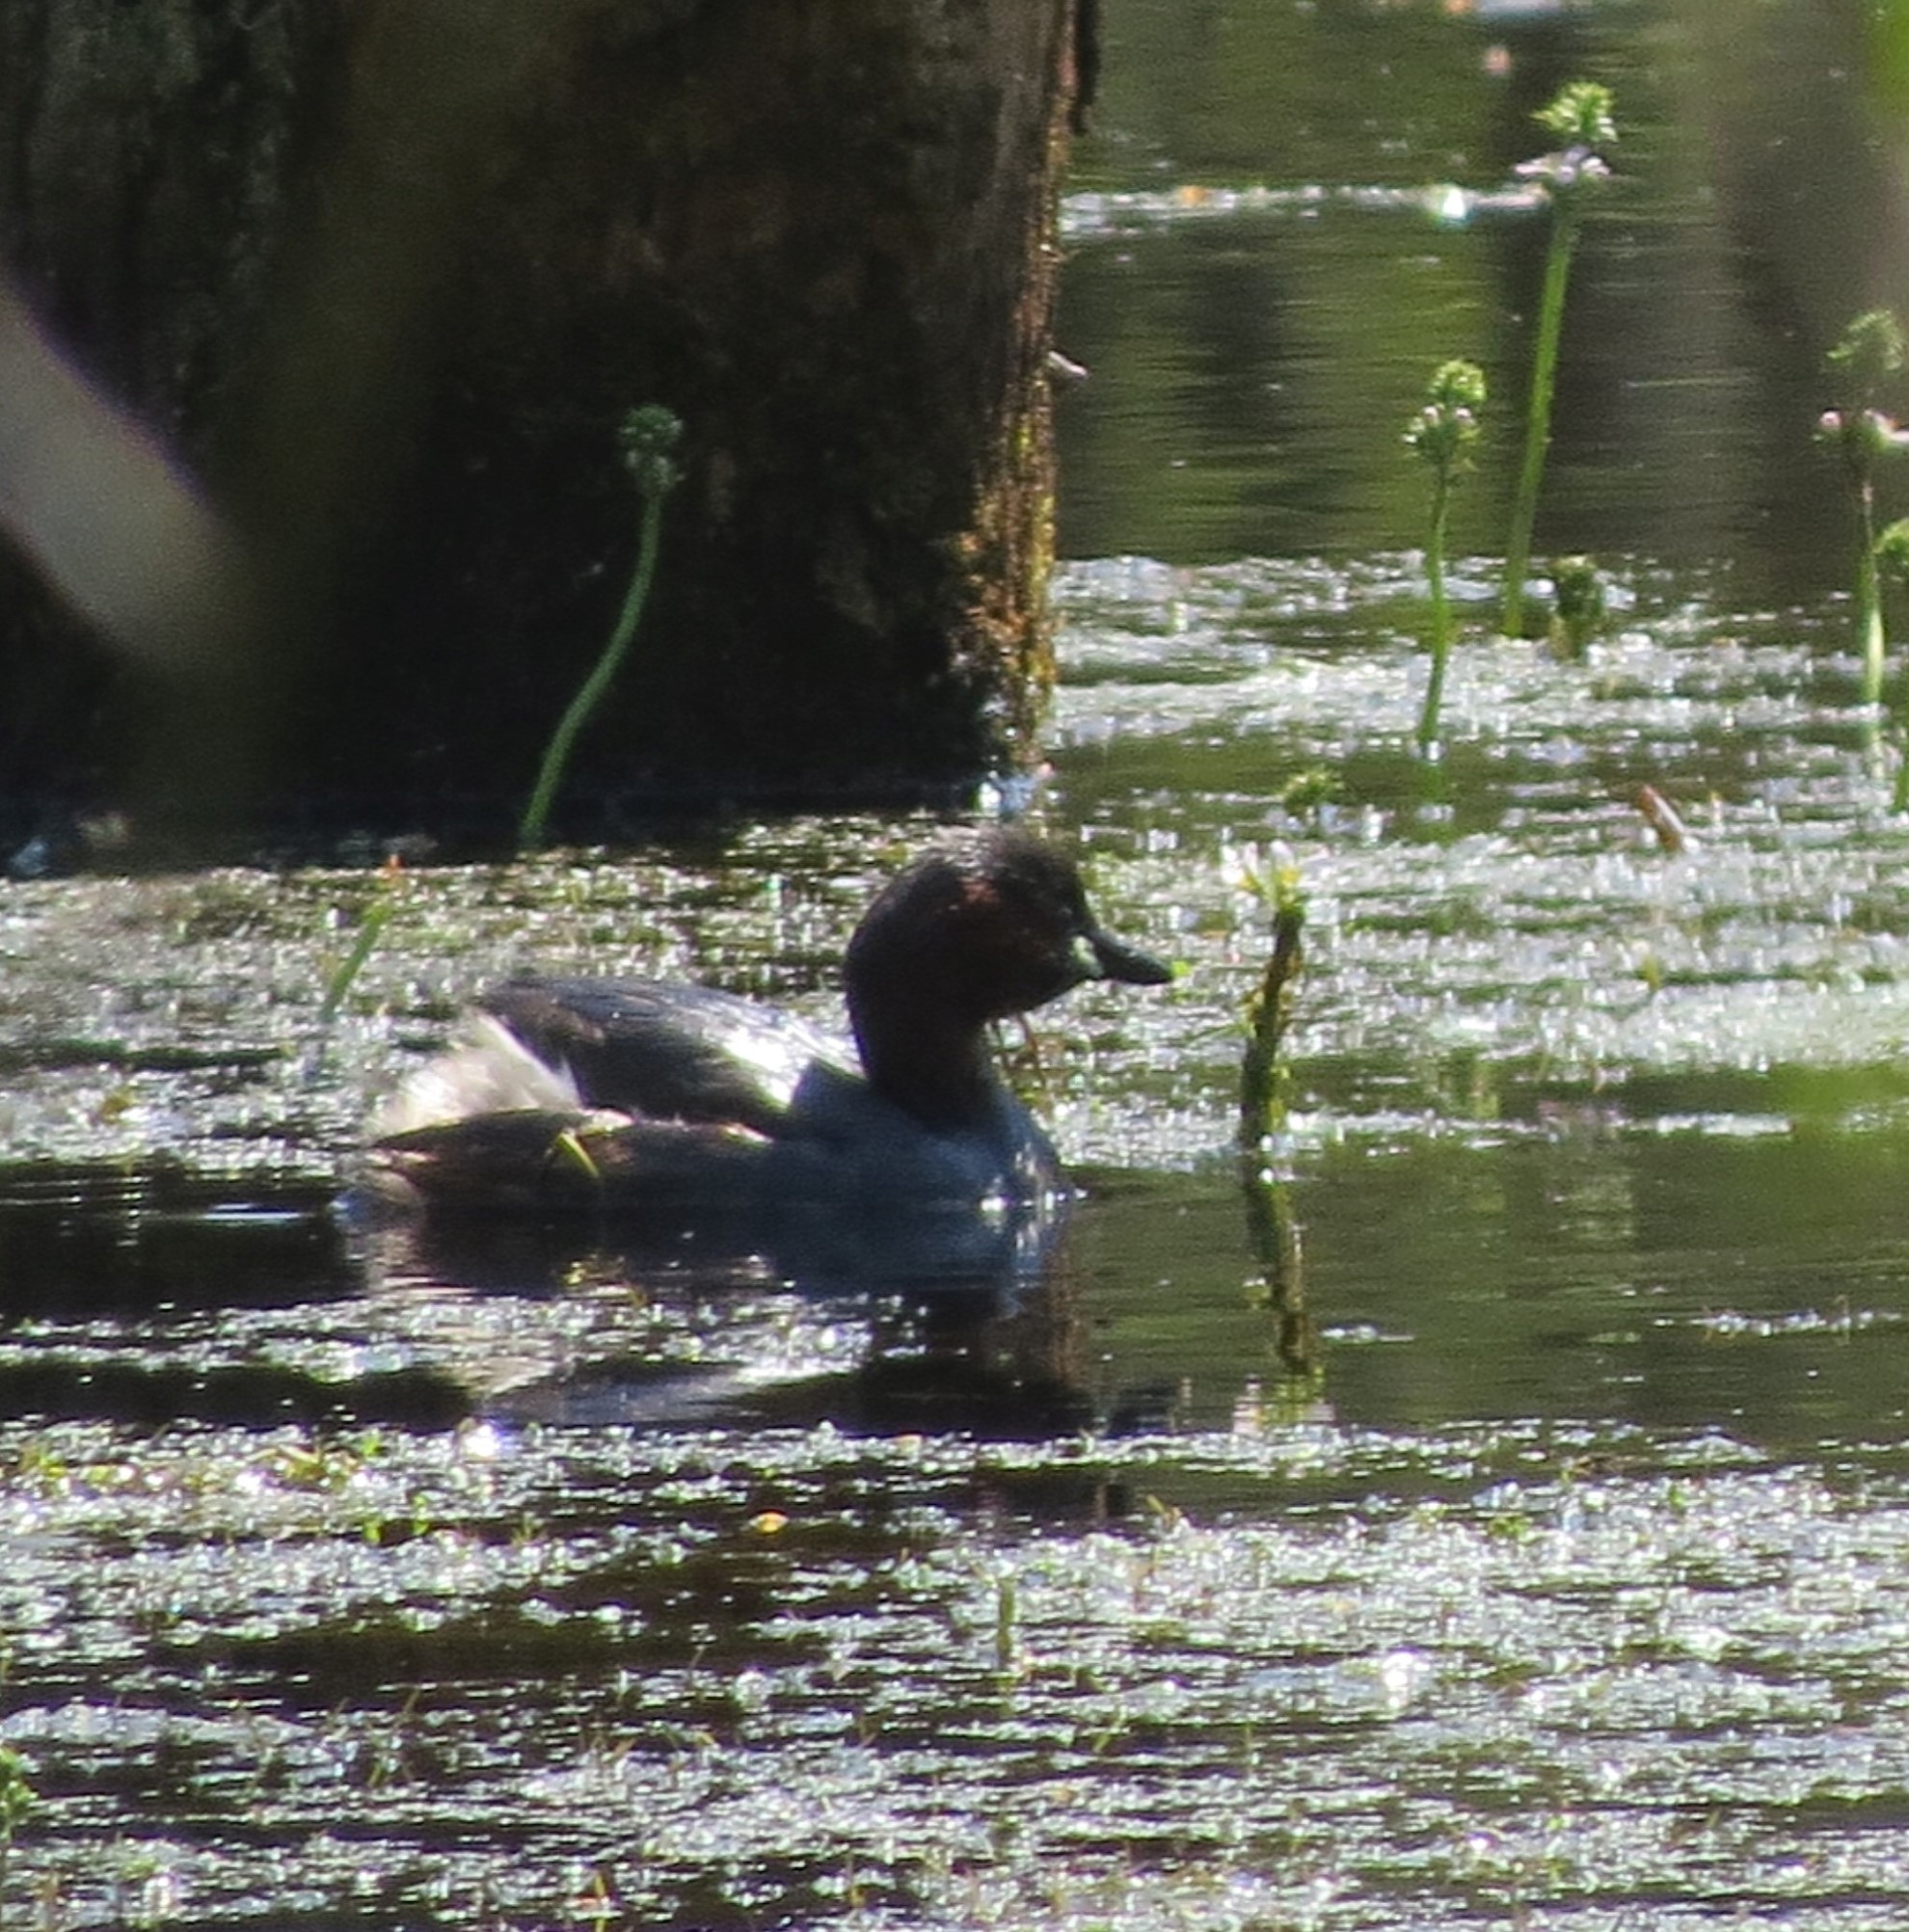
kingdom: Animalia
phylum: Chordata
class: Aves
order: Podicipediformes
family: Podicipedidae
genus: Tachybaptus
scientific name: Tachybaptus ruficollis
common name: Little grebe
